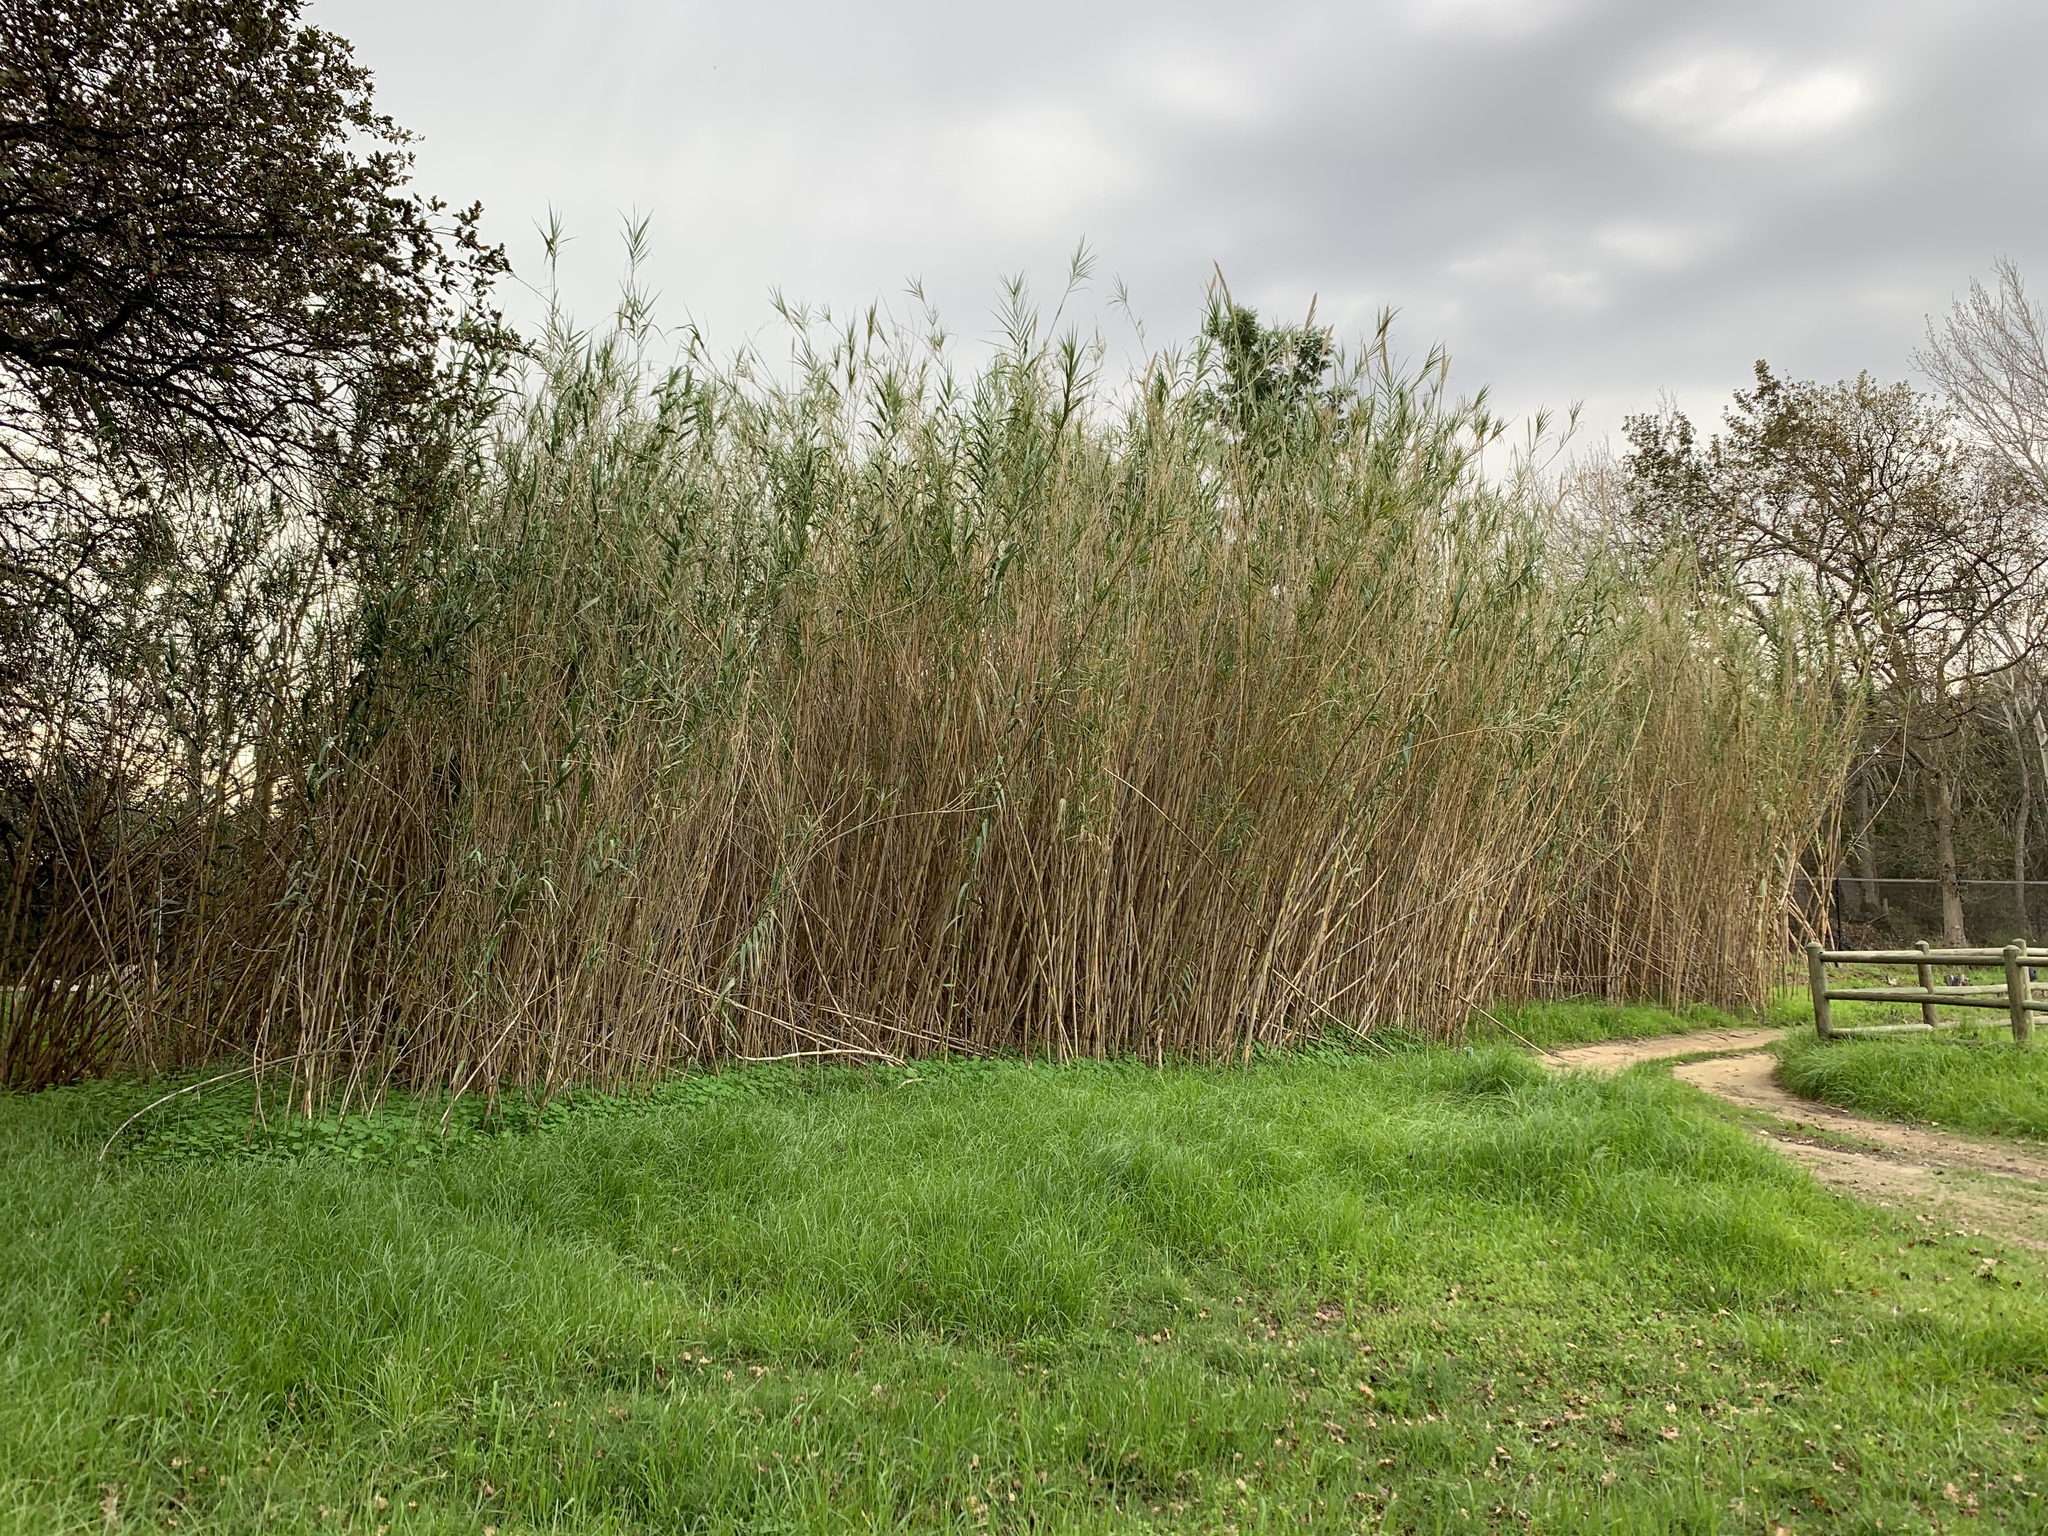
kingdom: Plantae
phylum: Tracheophyta
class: Liliopsida
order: Poales
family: Poaceae
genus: Arundo
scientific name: Arundo donax
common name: Giant reed
